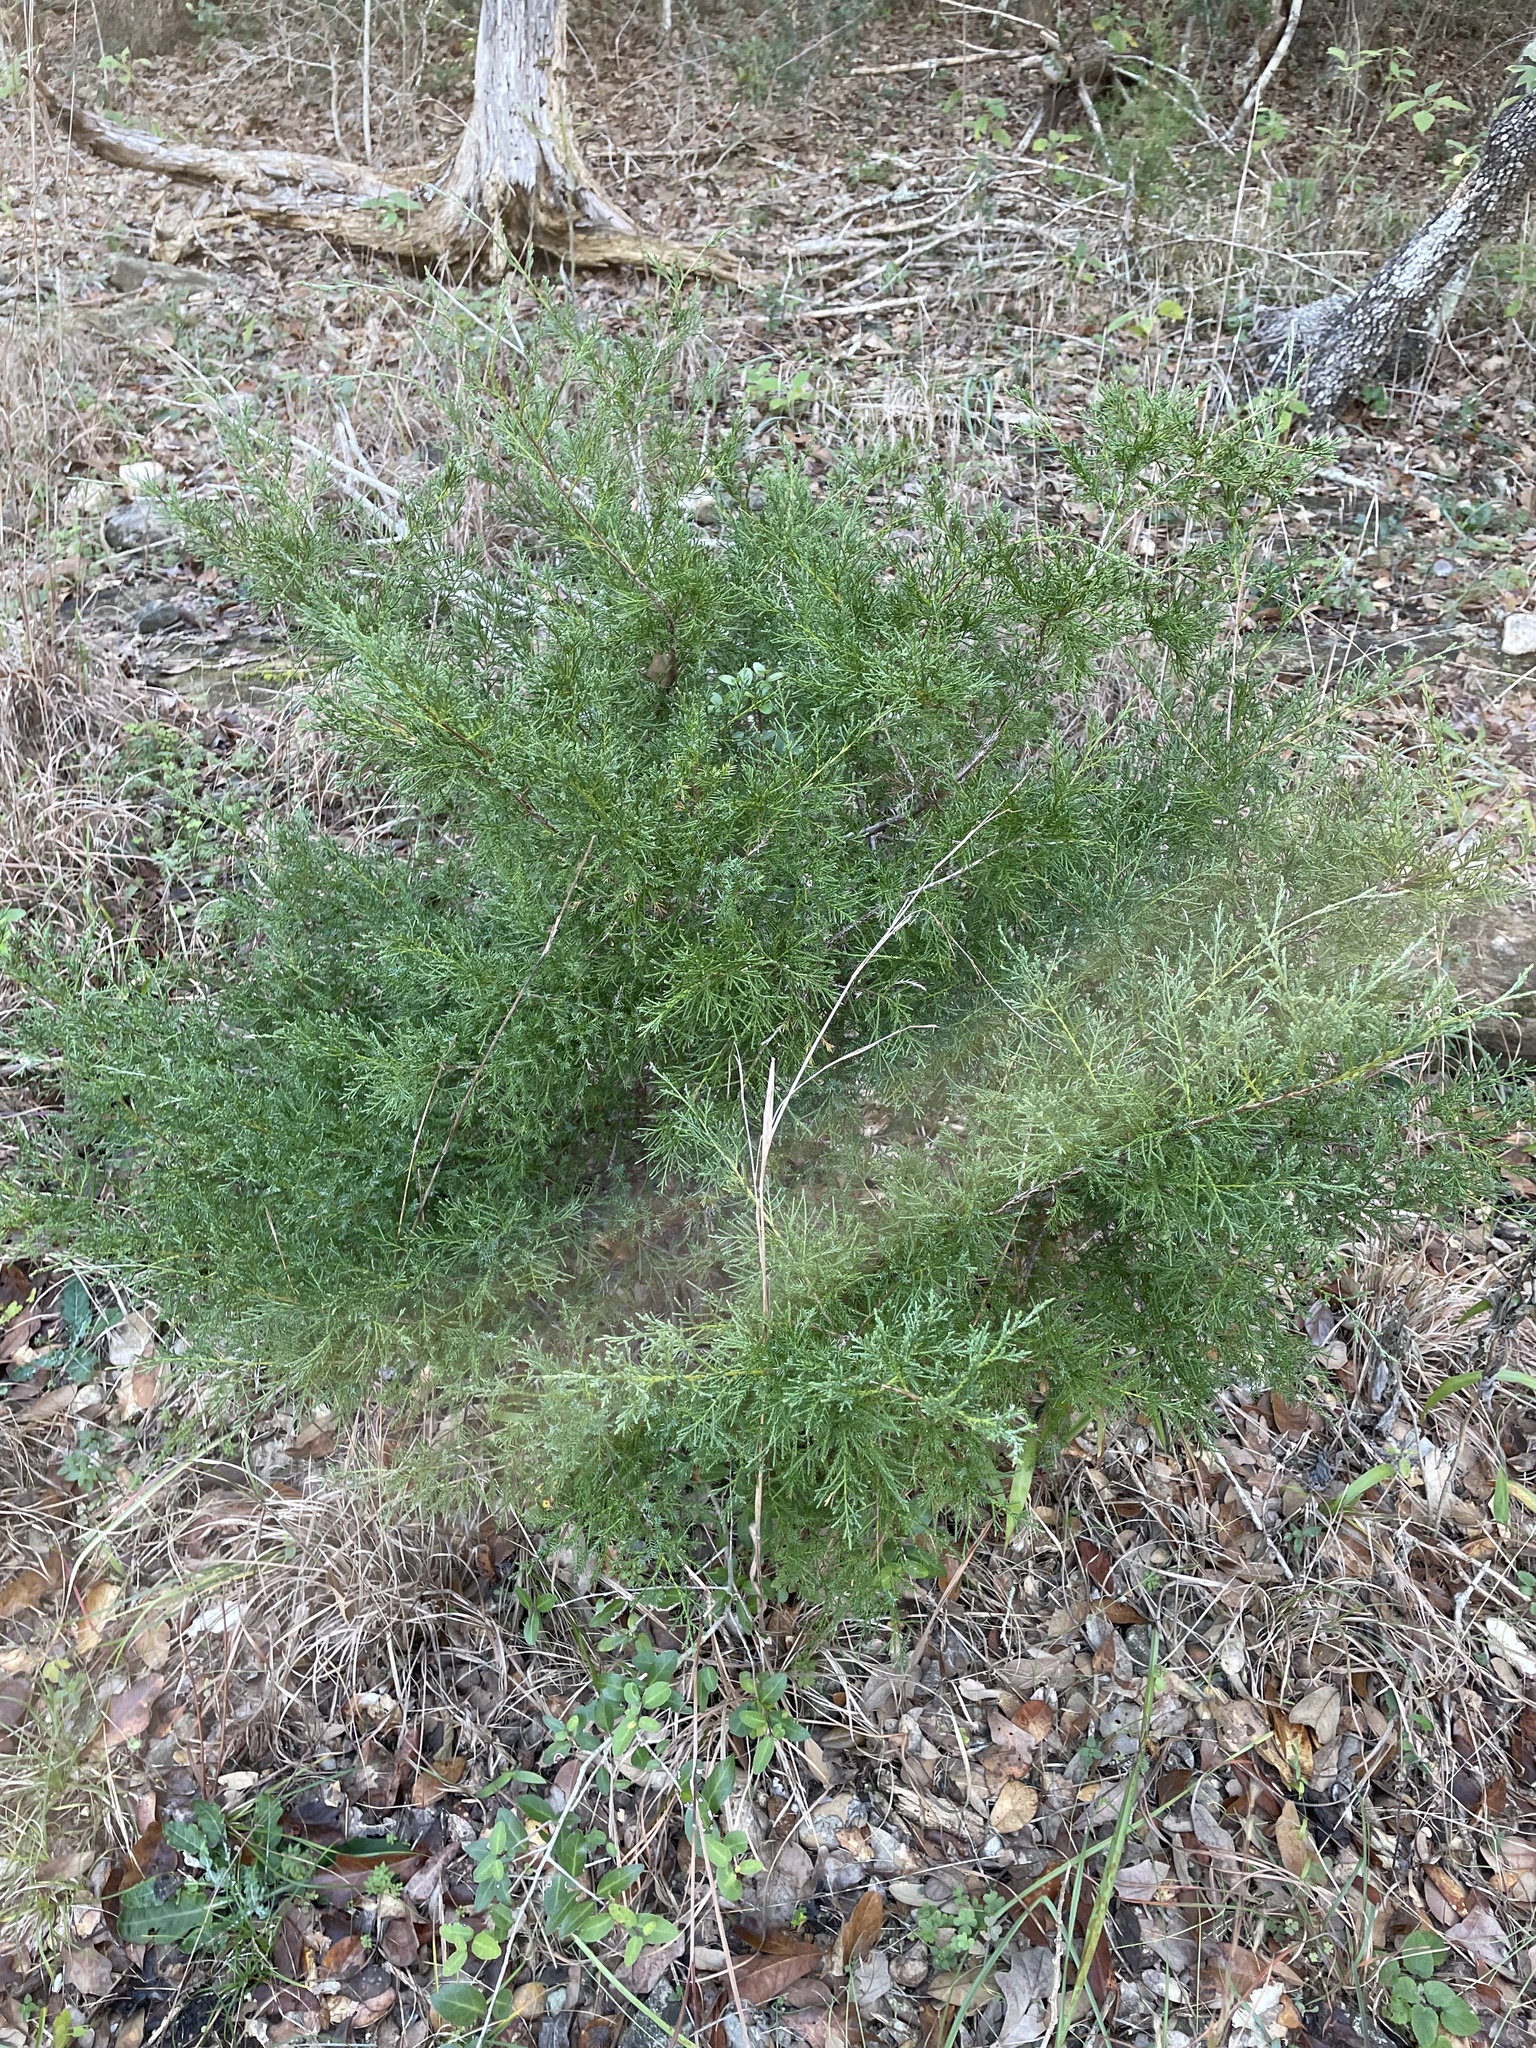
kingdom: Plantae
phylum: Tracheophyta
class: Pinopsida
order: Pinales
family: Cupressaceae
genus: Juniperus
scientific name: Juniperus virginiana
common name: Red juniper
